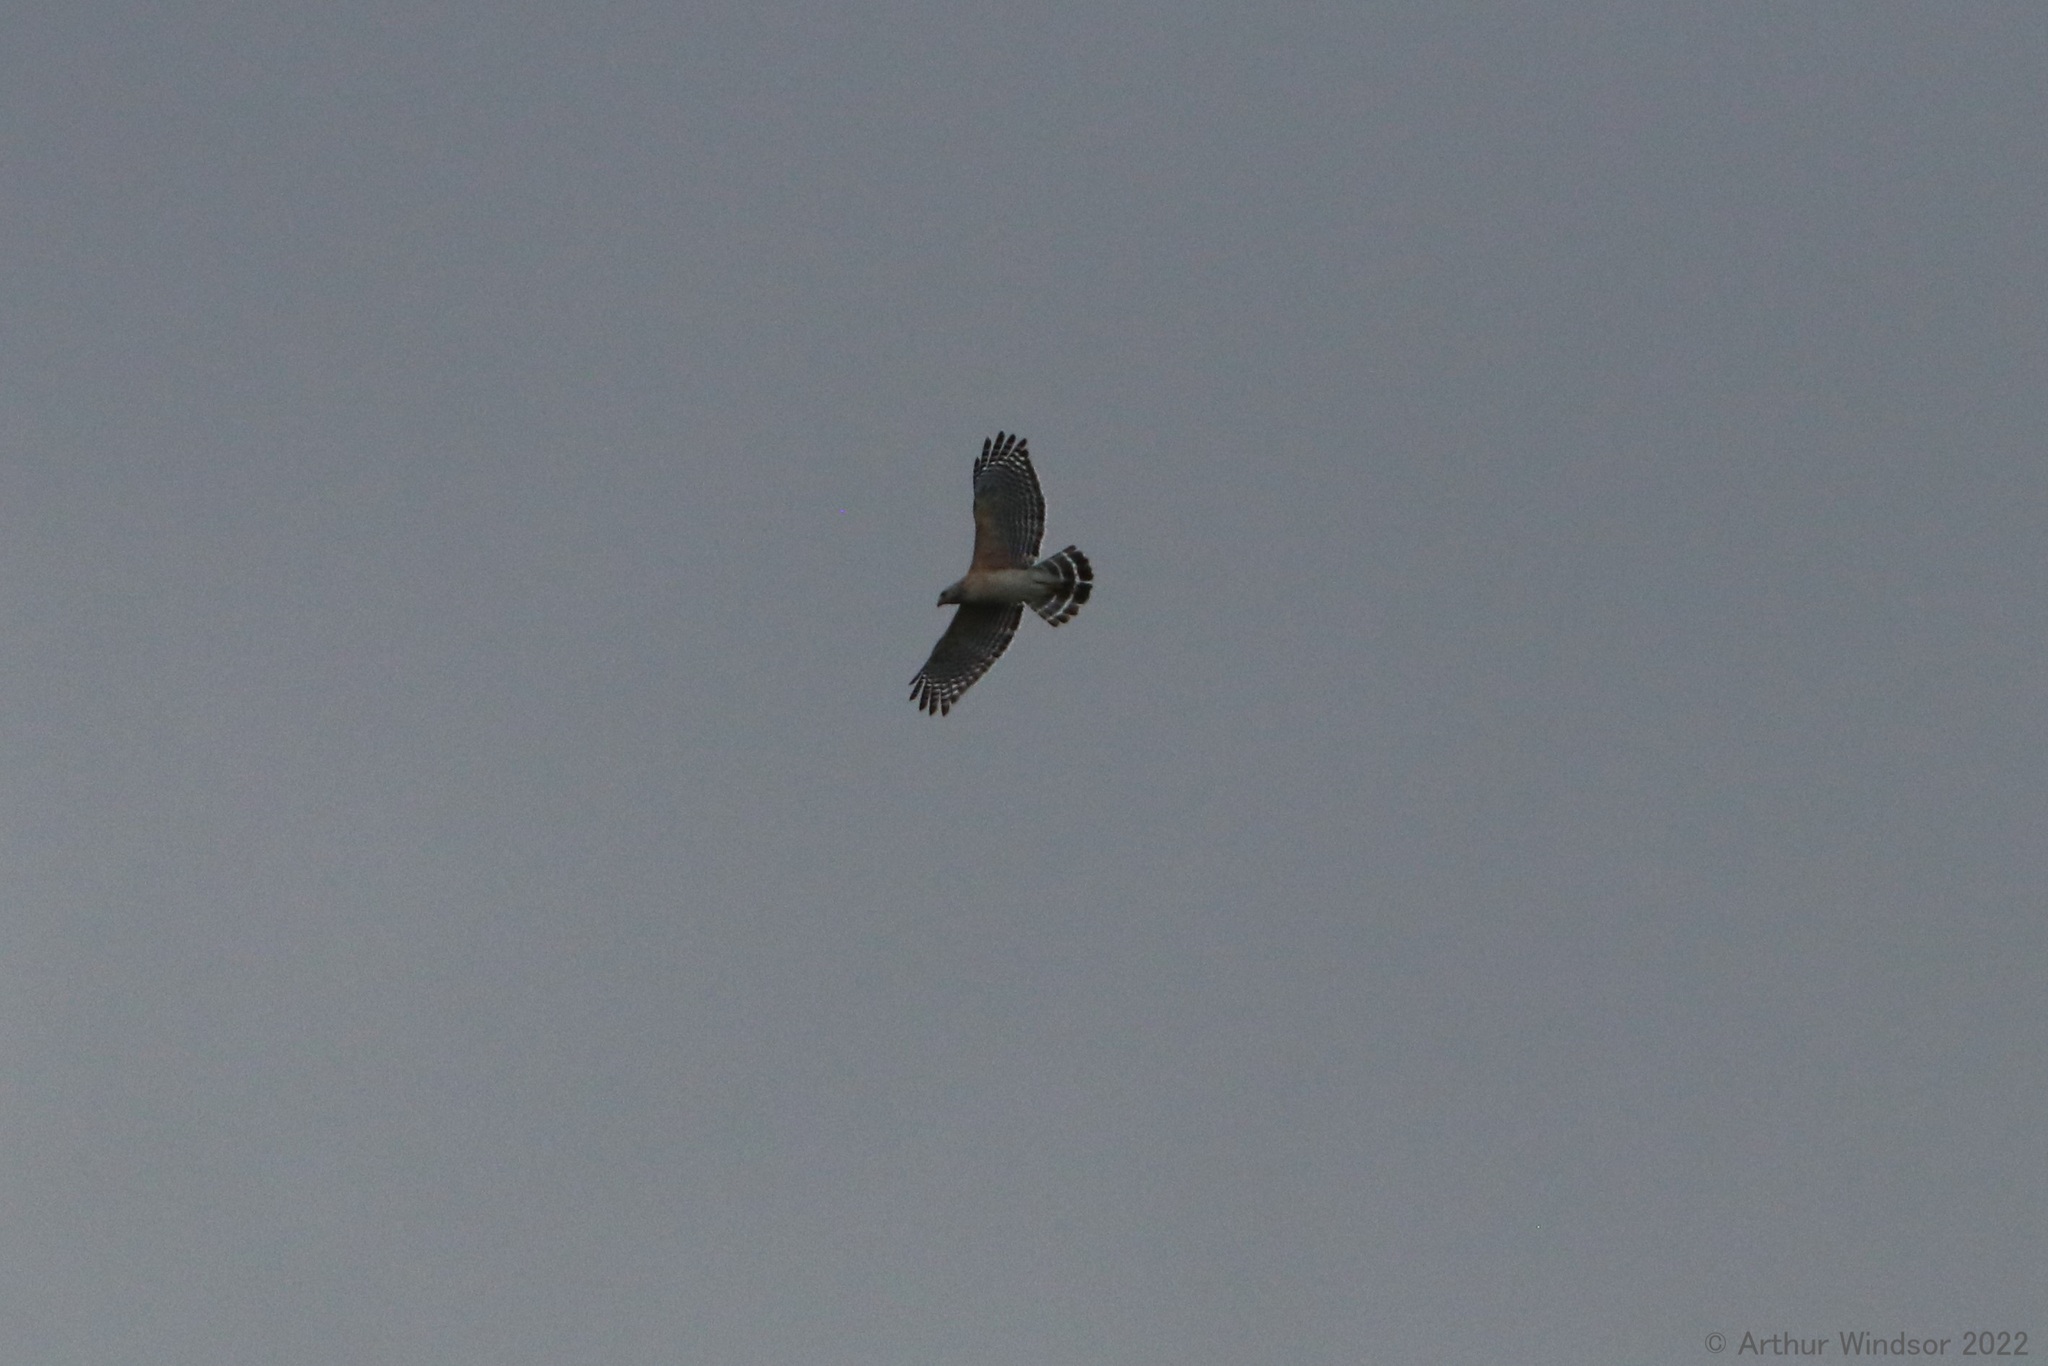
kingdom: Animalia
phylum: Chordata
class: Aves
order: Accipitriformes
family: Accipitridae
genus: Buteo
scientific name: Buteo lineatus
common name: Red-shouldered hawk
